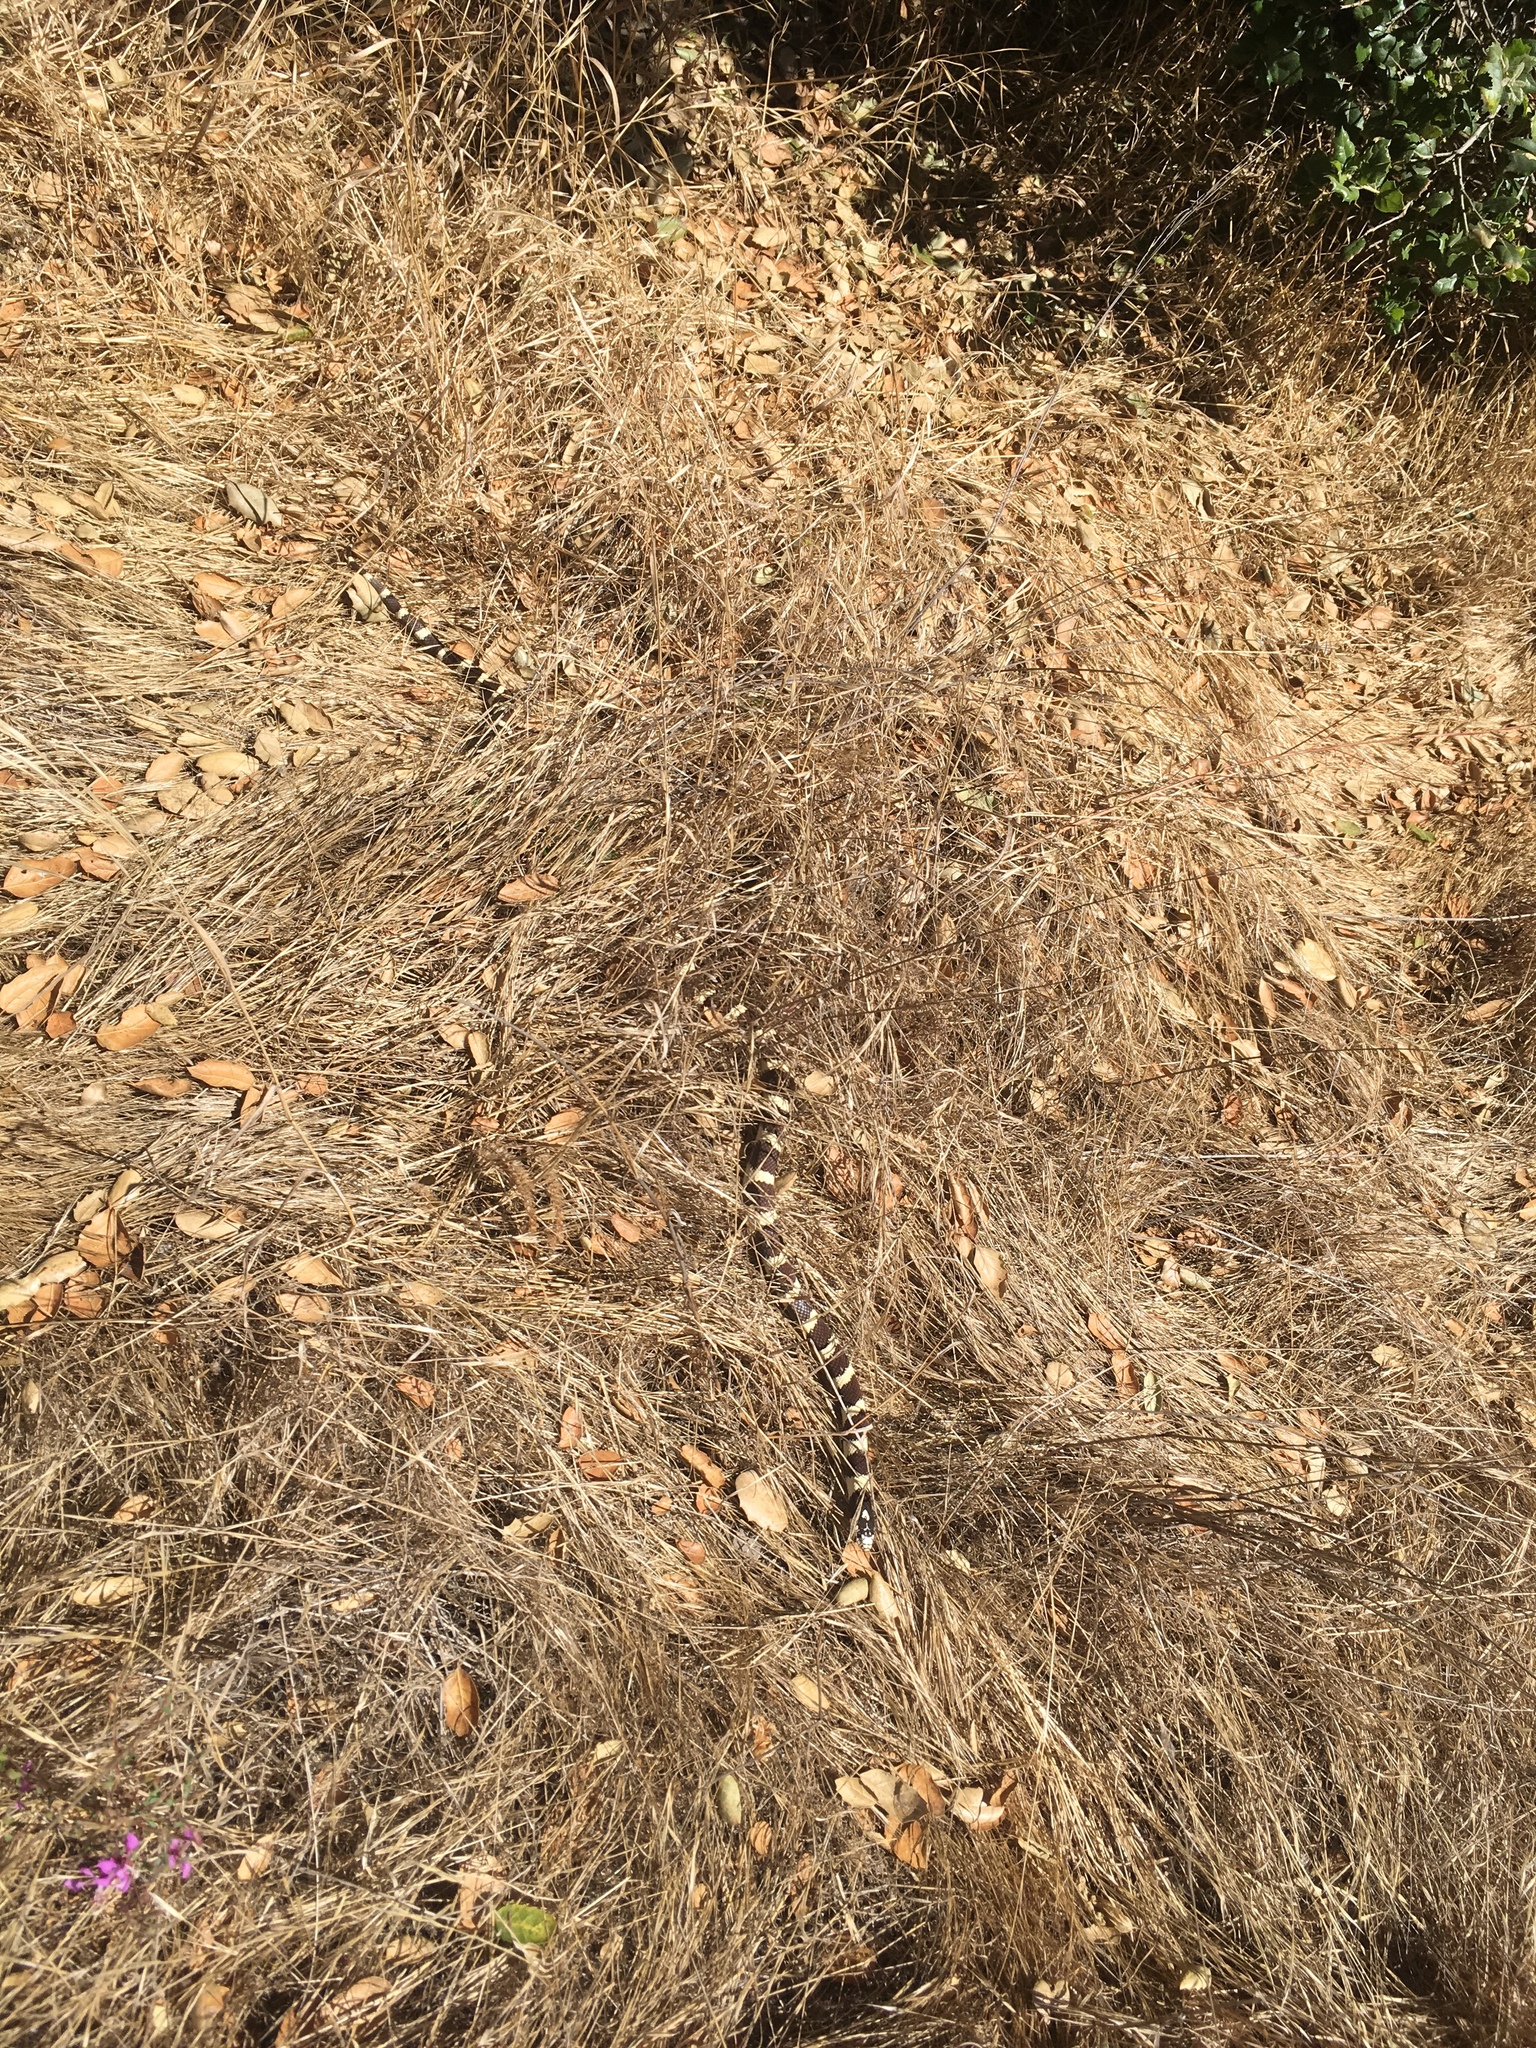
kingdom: Animalia
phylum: Chordata
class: Squamata
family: Colubridae
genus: Lampropeltis
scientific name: Lampropeltis californiae
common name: California kingsnake
